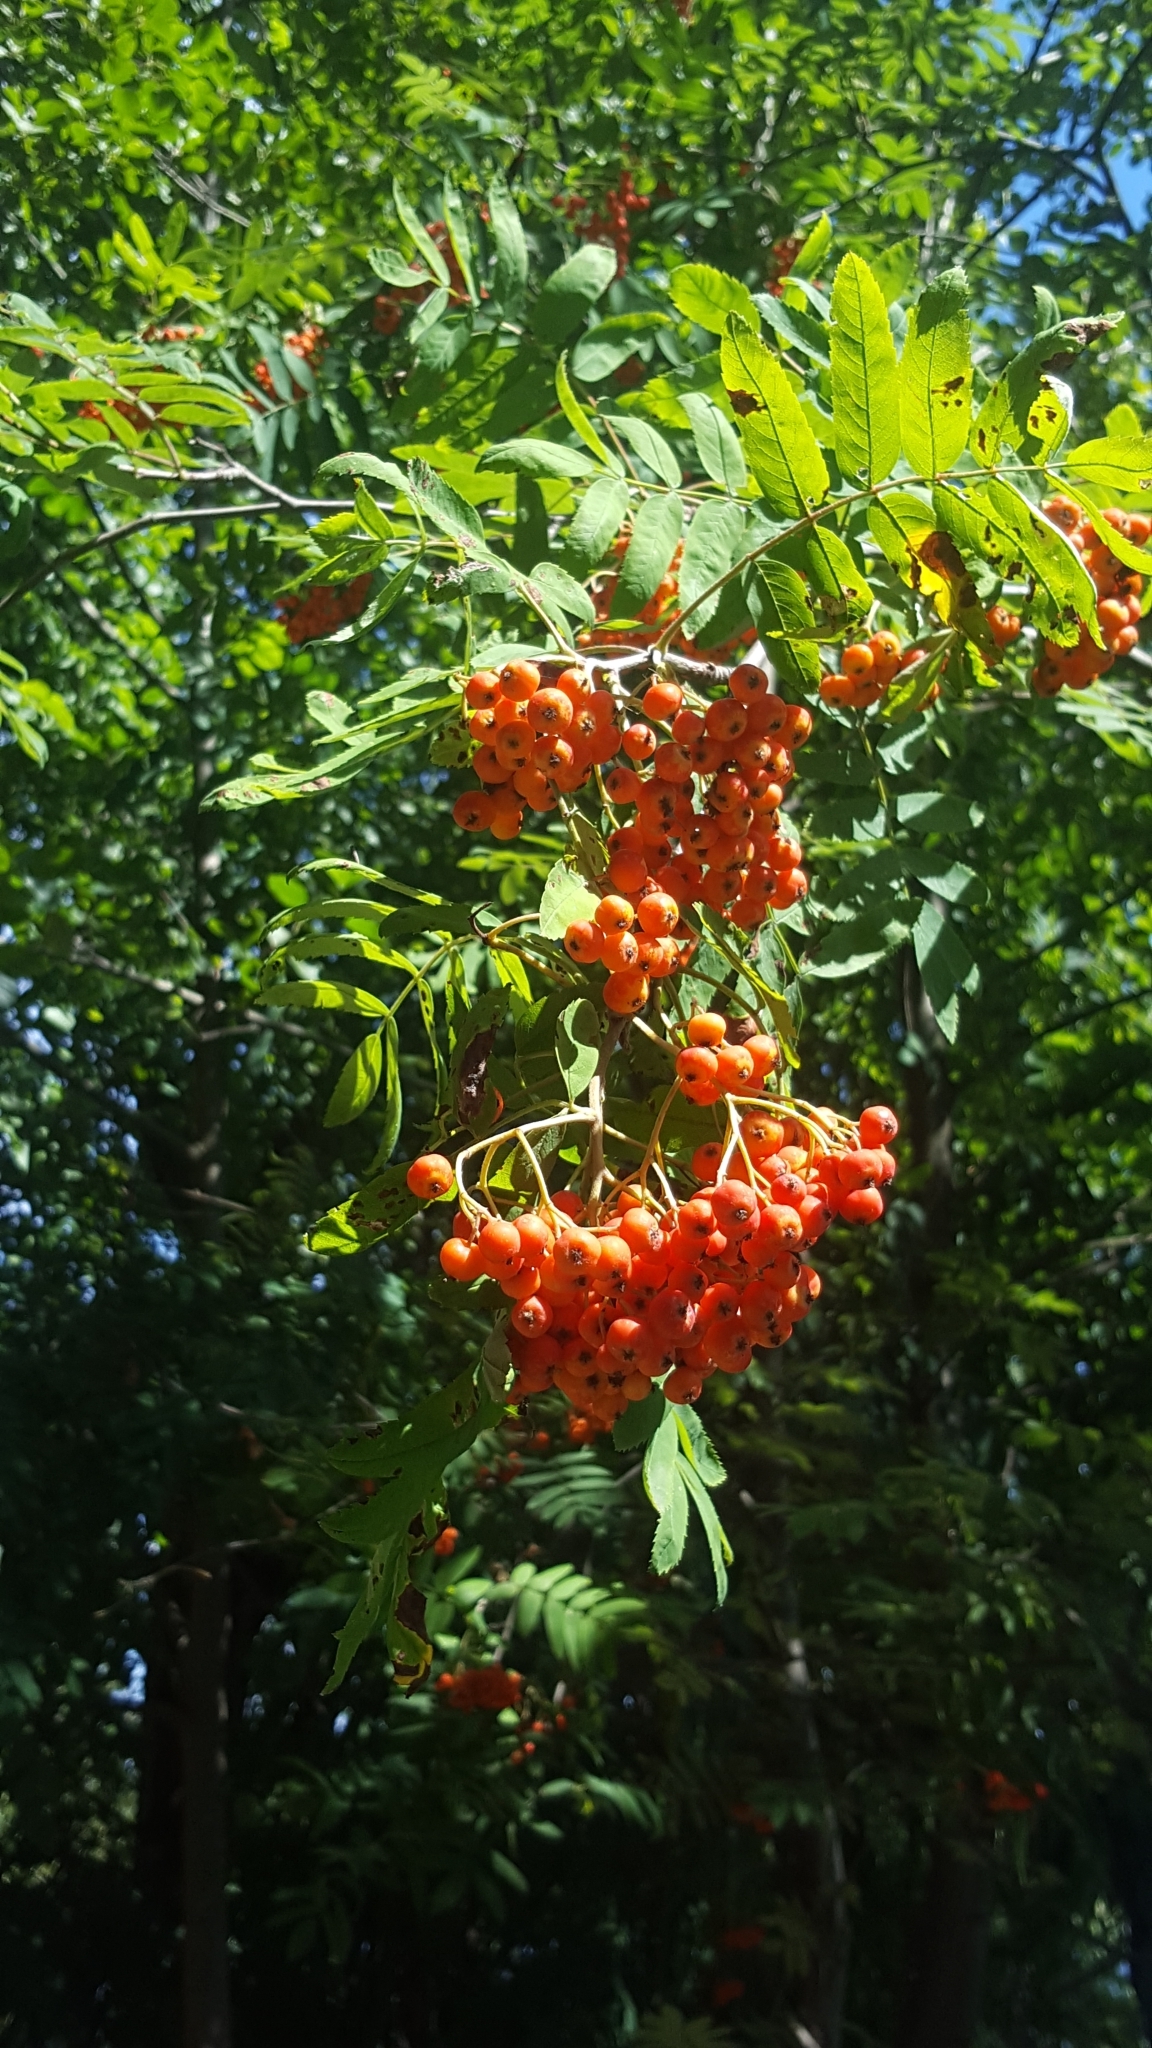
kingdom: Plantae
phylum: Tracheophyta
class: Magnoliopsida
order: Rosales
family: Rosaceae
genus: Sorbus
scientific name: Sorbus aucuparia
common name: Rowan
